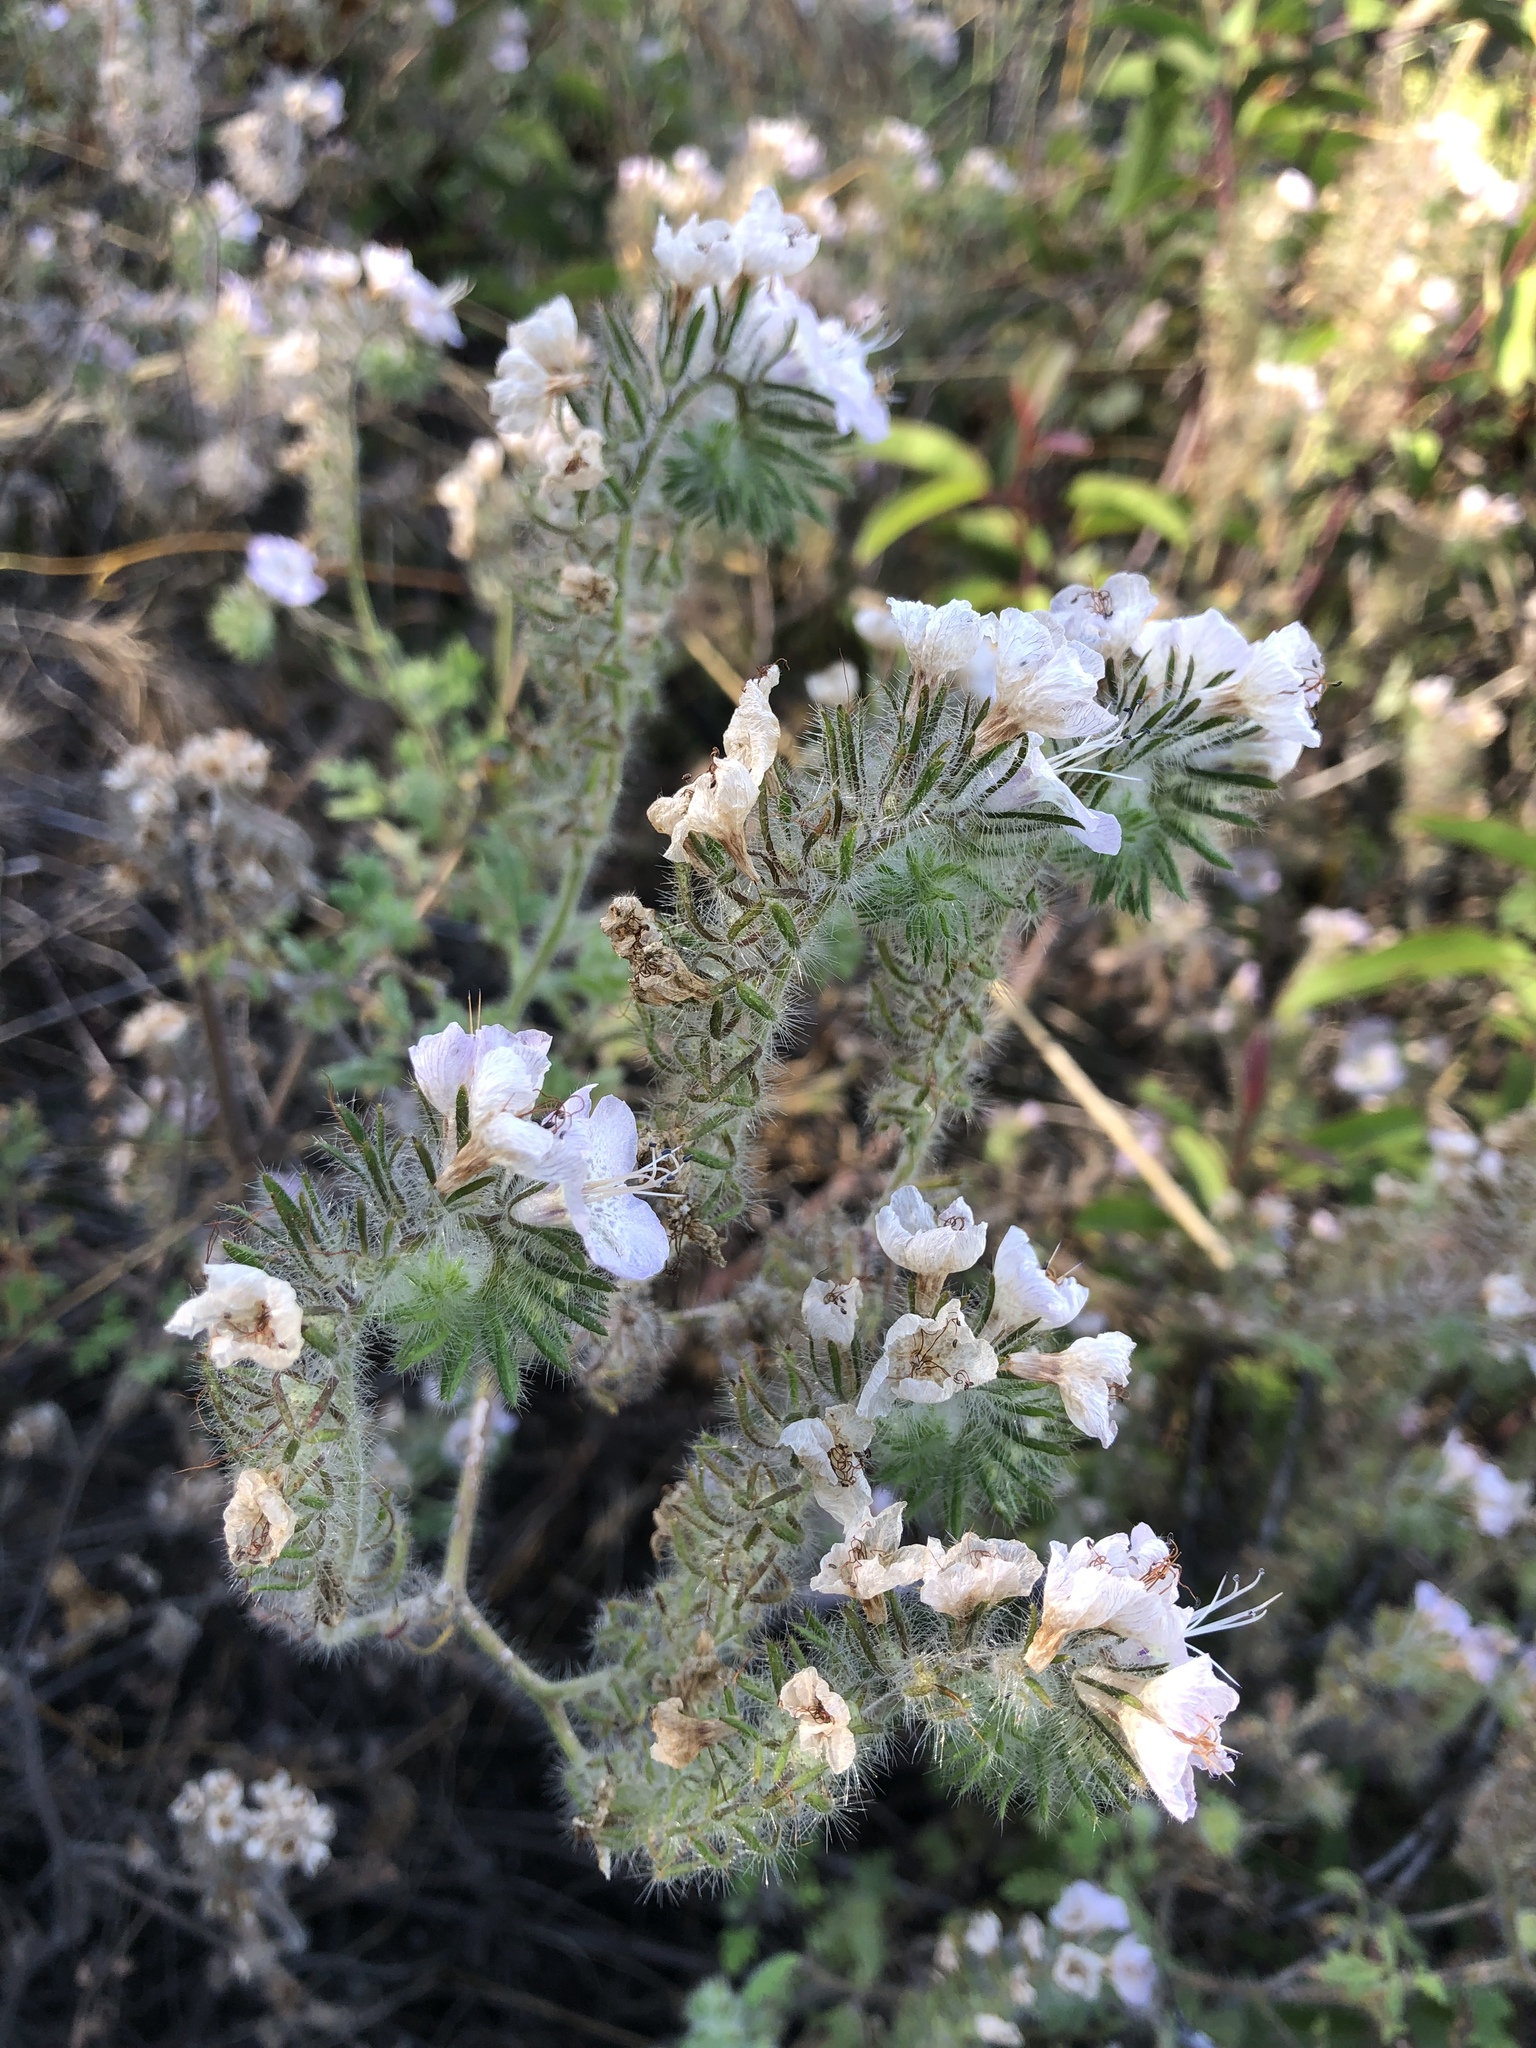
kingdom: Plantae
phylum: Tracheophyta
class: Magnoliopsida
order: Boraginales
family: Hydrophyllaceae
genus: Phacelia
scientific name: Phacelia cicutaria
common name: Caterpillar phacelia
